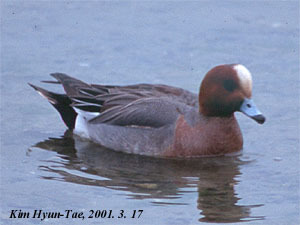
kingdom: Animalia
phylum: Chordata
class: Aves
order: Anseriformes
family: Anatidae
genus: Mareca
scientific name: Mareca penelope
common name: Eurasian wigeon
